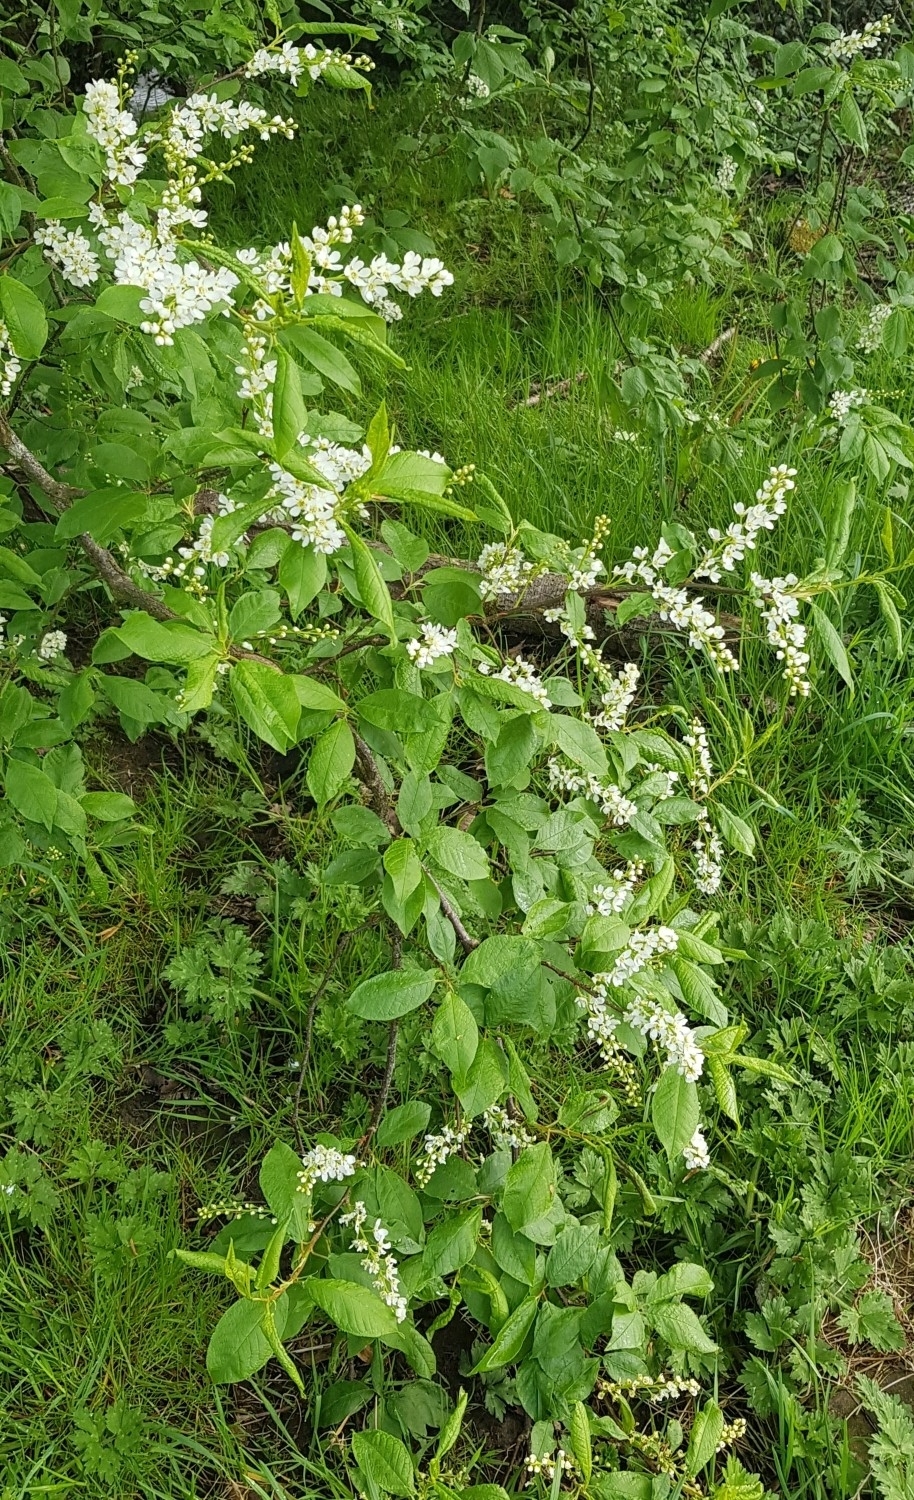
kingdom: Plantae
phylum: Tracheophyta
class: Magnoliopsida
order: Rosales
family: Rosaceae
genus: Prunus
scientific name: Prunus padus
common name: Bird cherry
